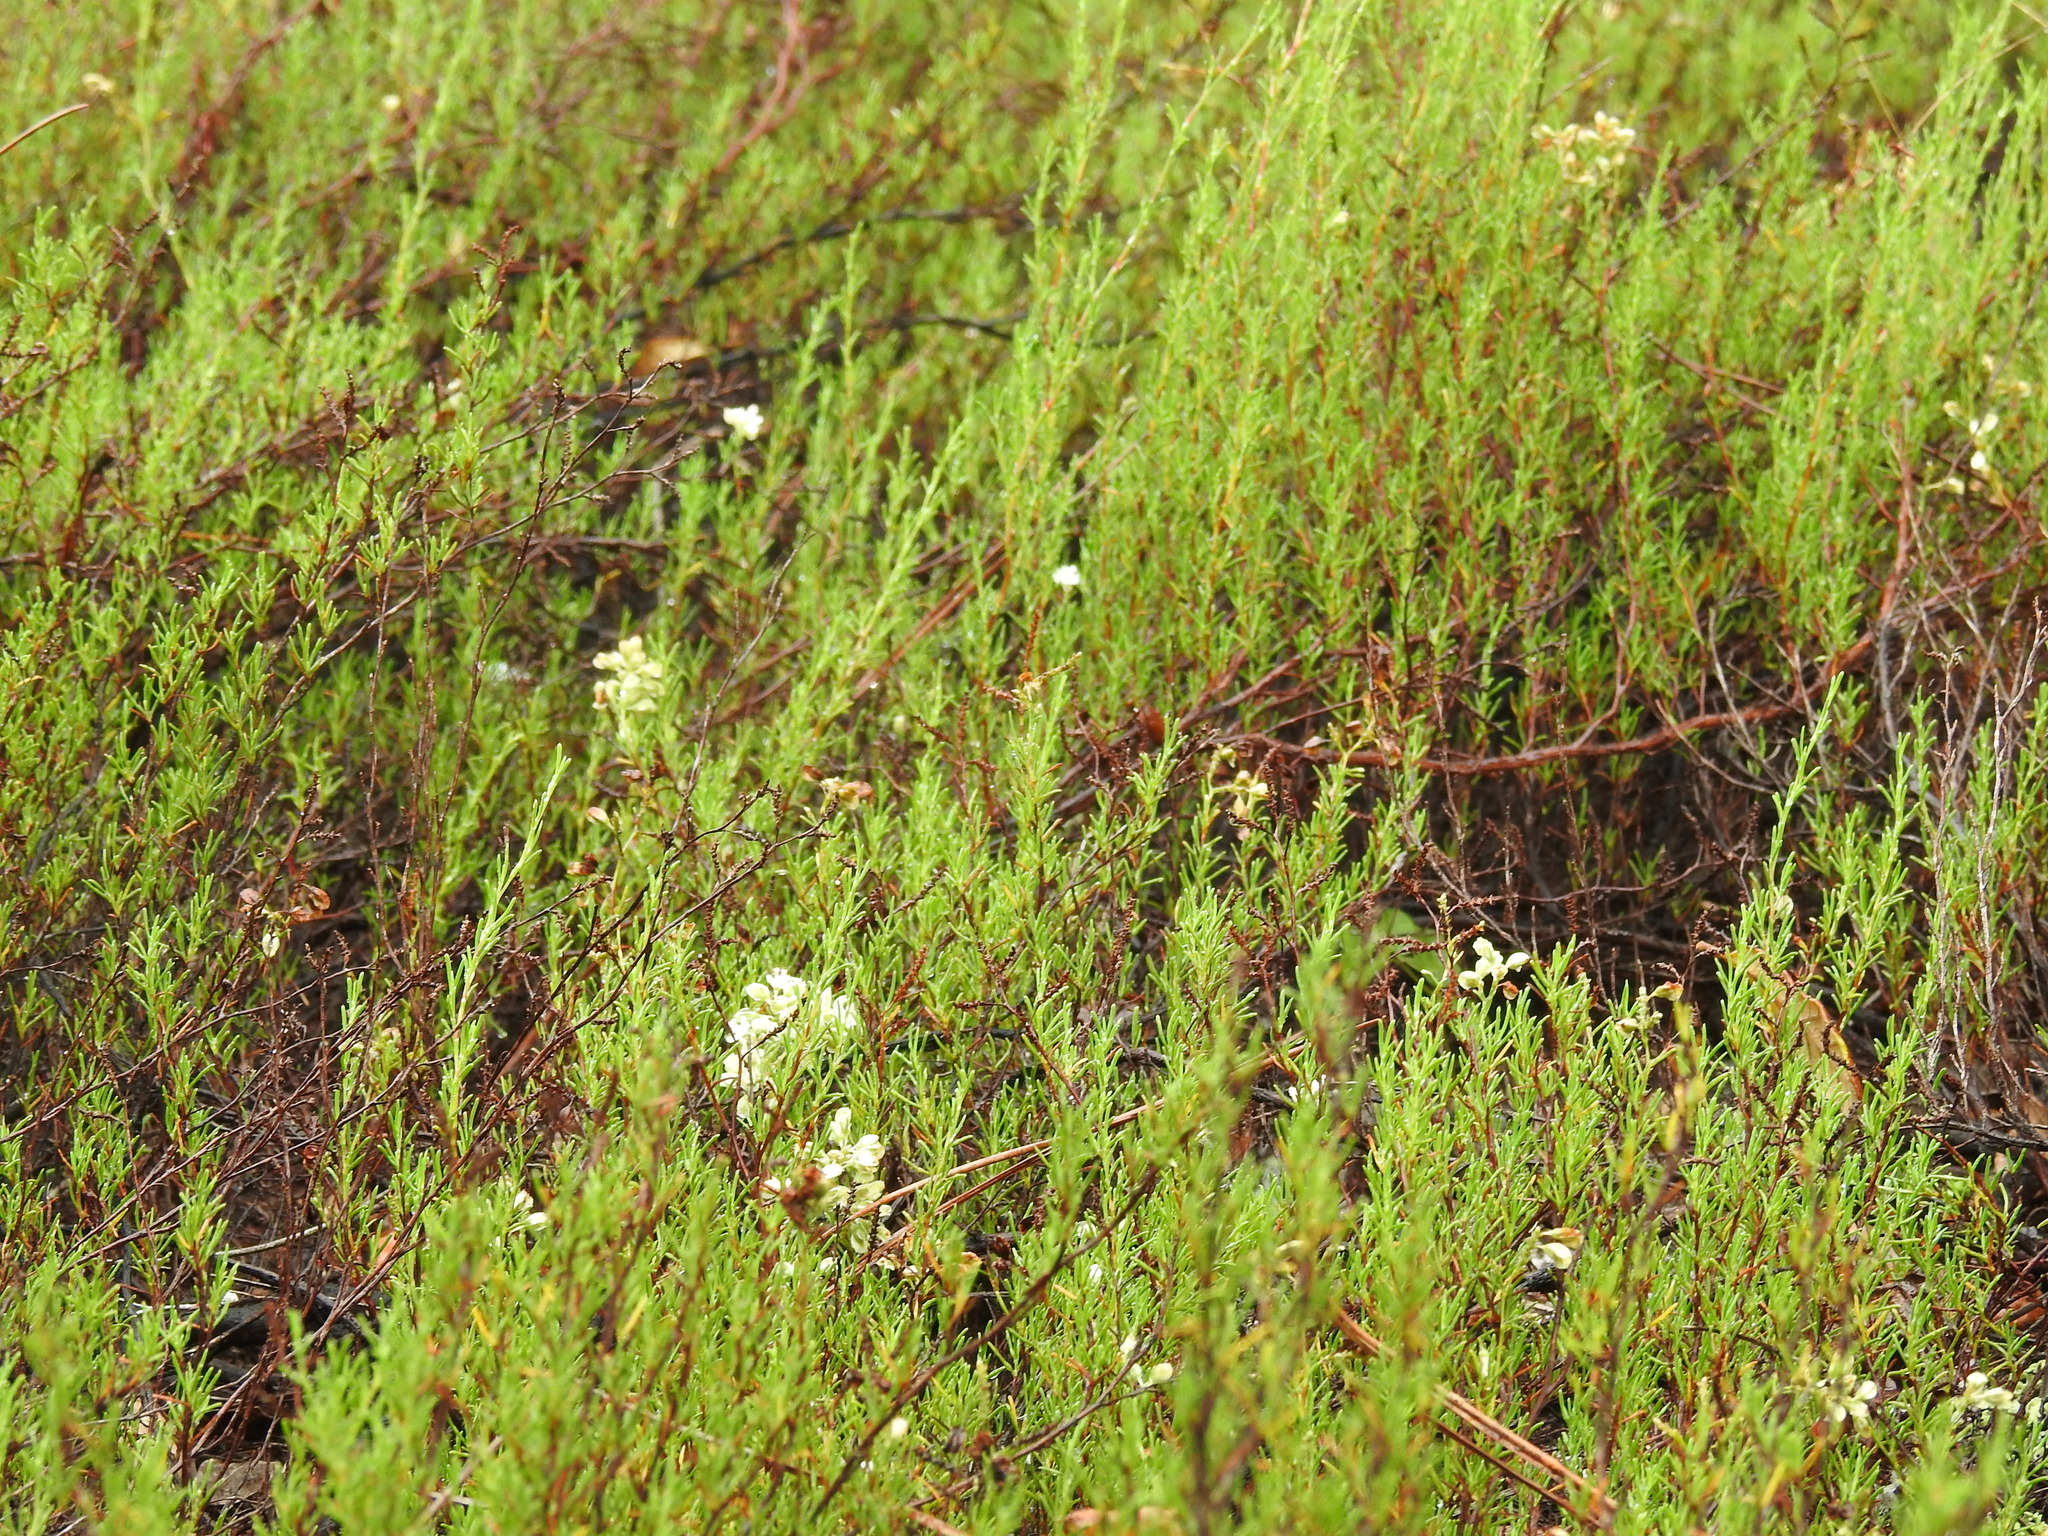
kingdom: Plantae
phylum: Tracheophyta
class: Magnoliopsida
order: Caryophyllales
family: Polygonaceae
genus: Polygonella
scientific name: Polygonella myriophylla
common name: Sandlace
